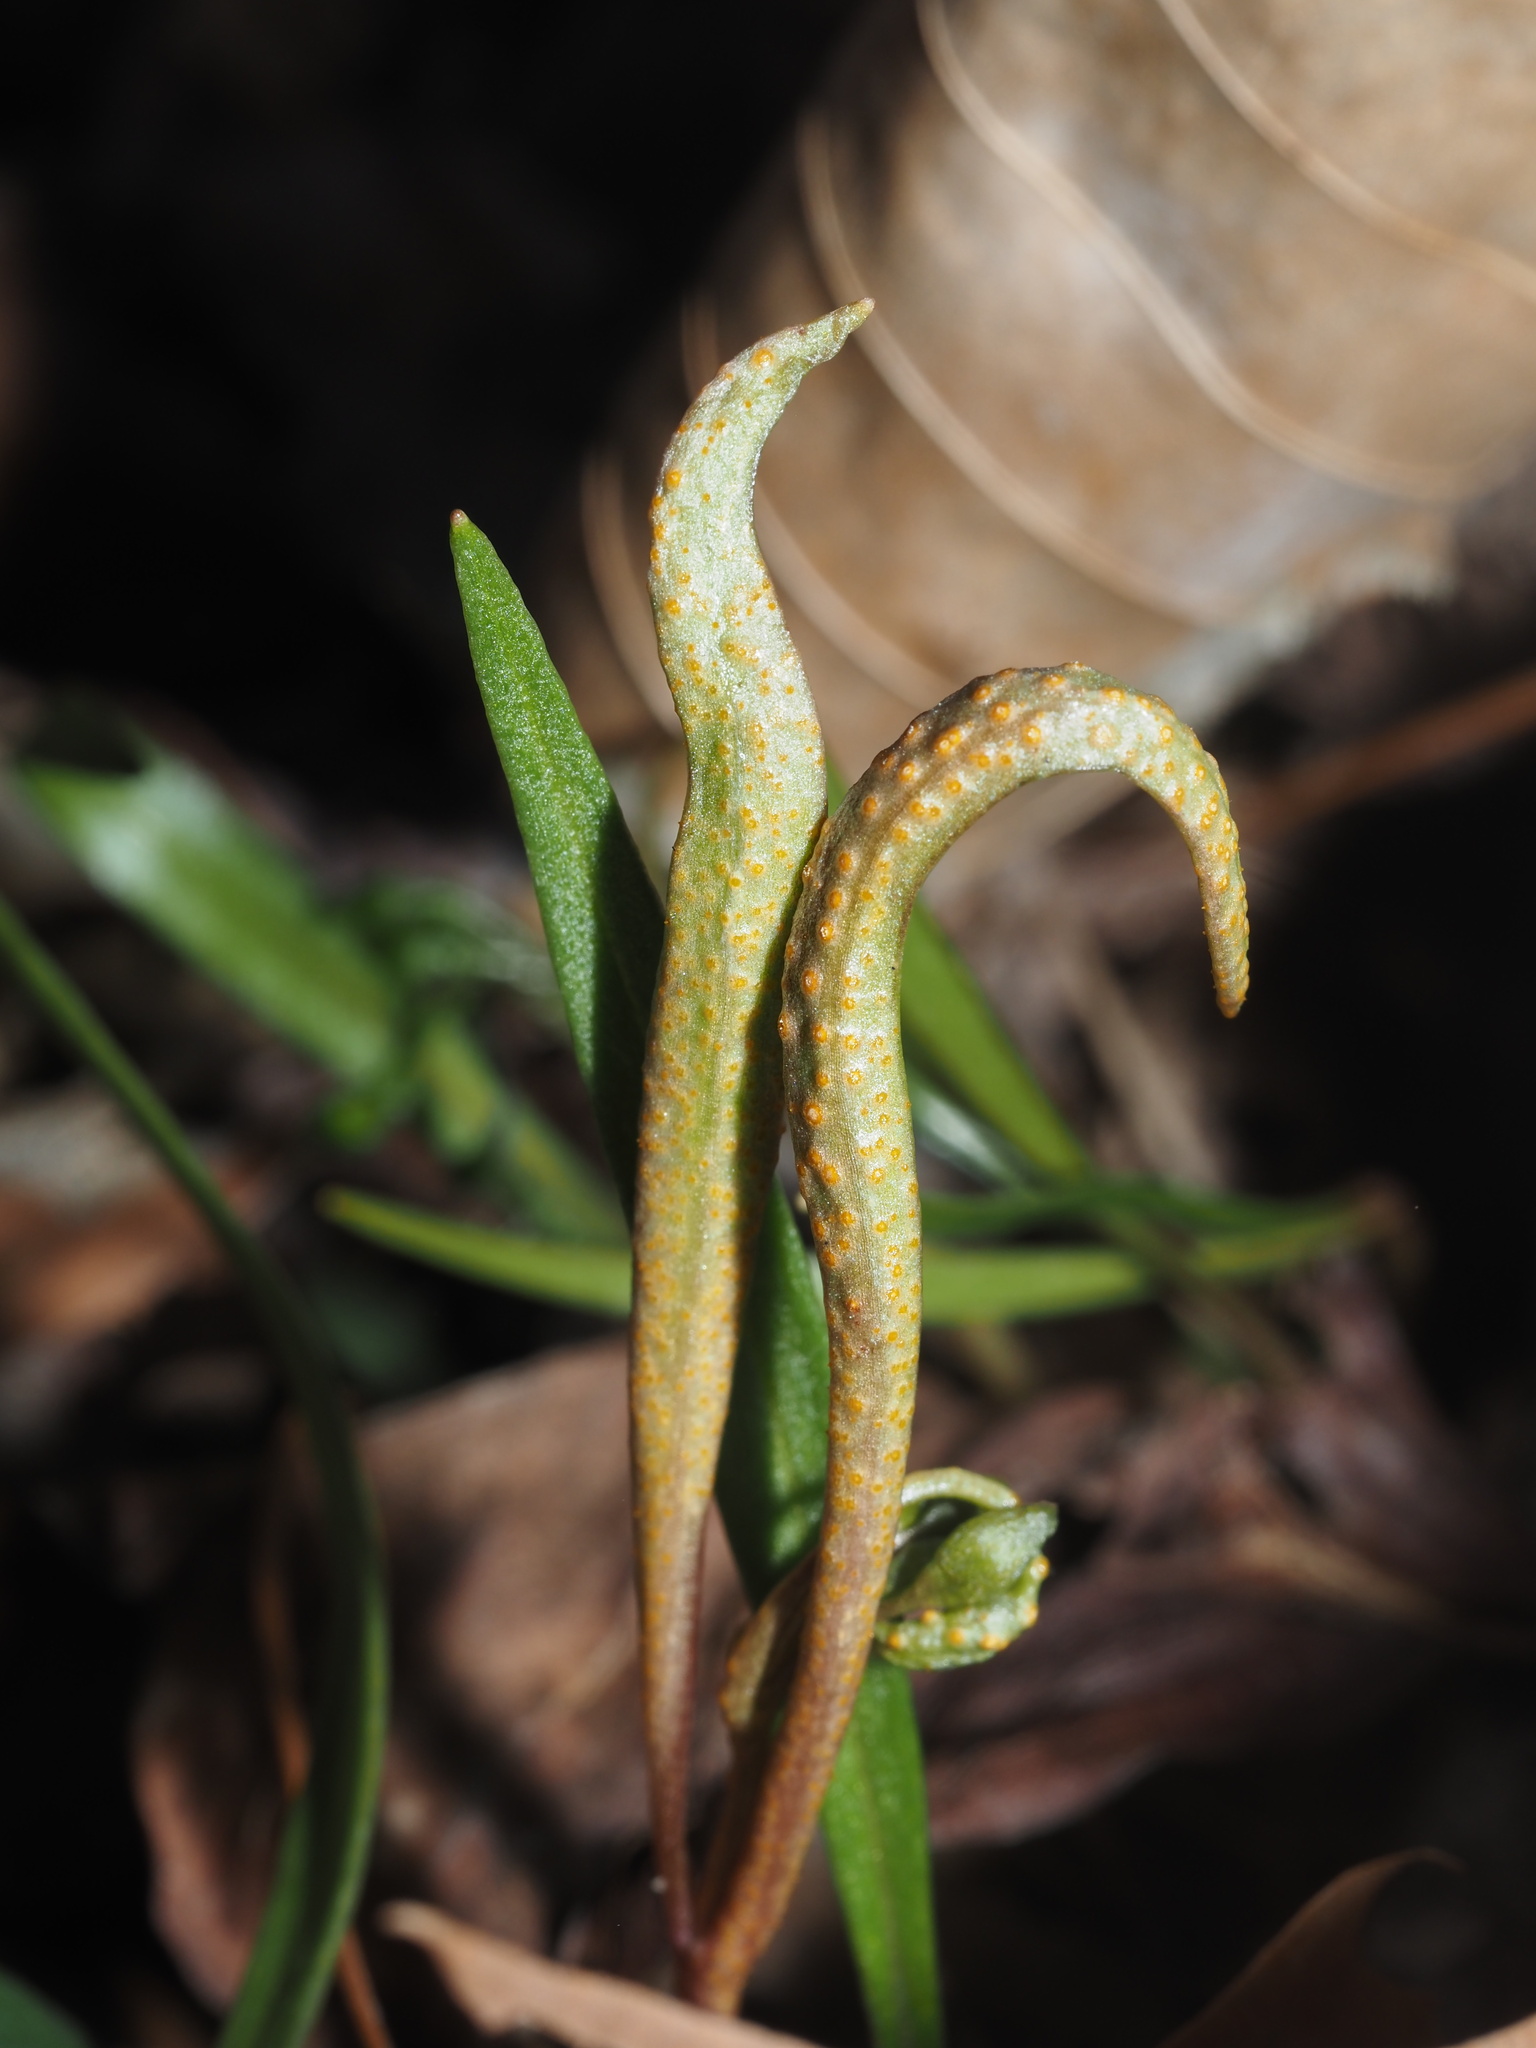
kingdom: Fungi
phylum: Basidiomycota
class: Pucciniomycetes
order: Pucciniales
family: Pucciniaceae
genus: Puccinia
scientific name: Puccinia mariae-wilsoniae
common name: Spring beauty rust
